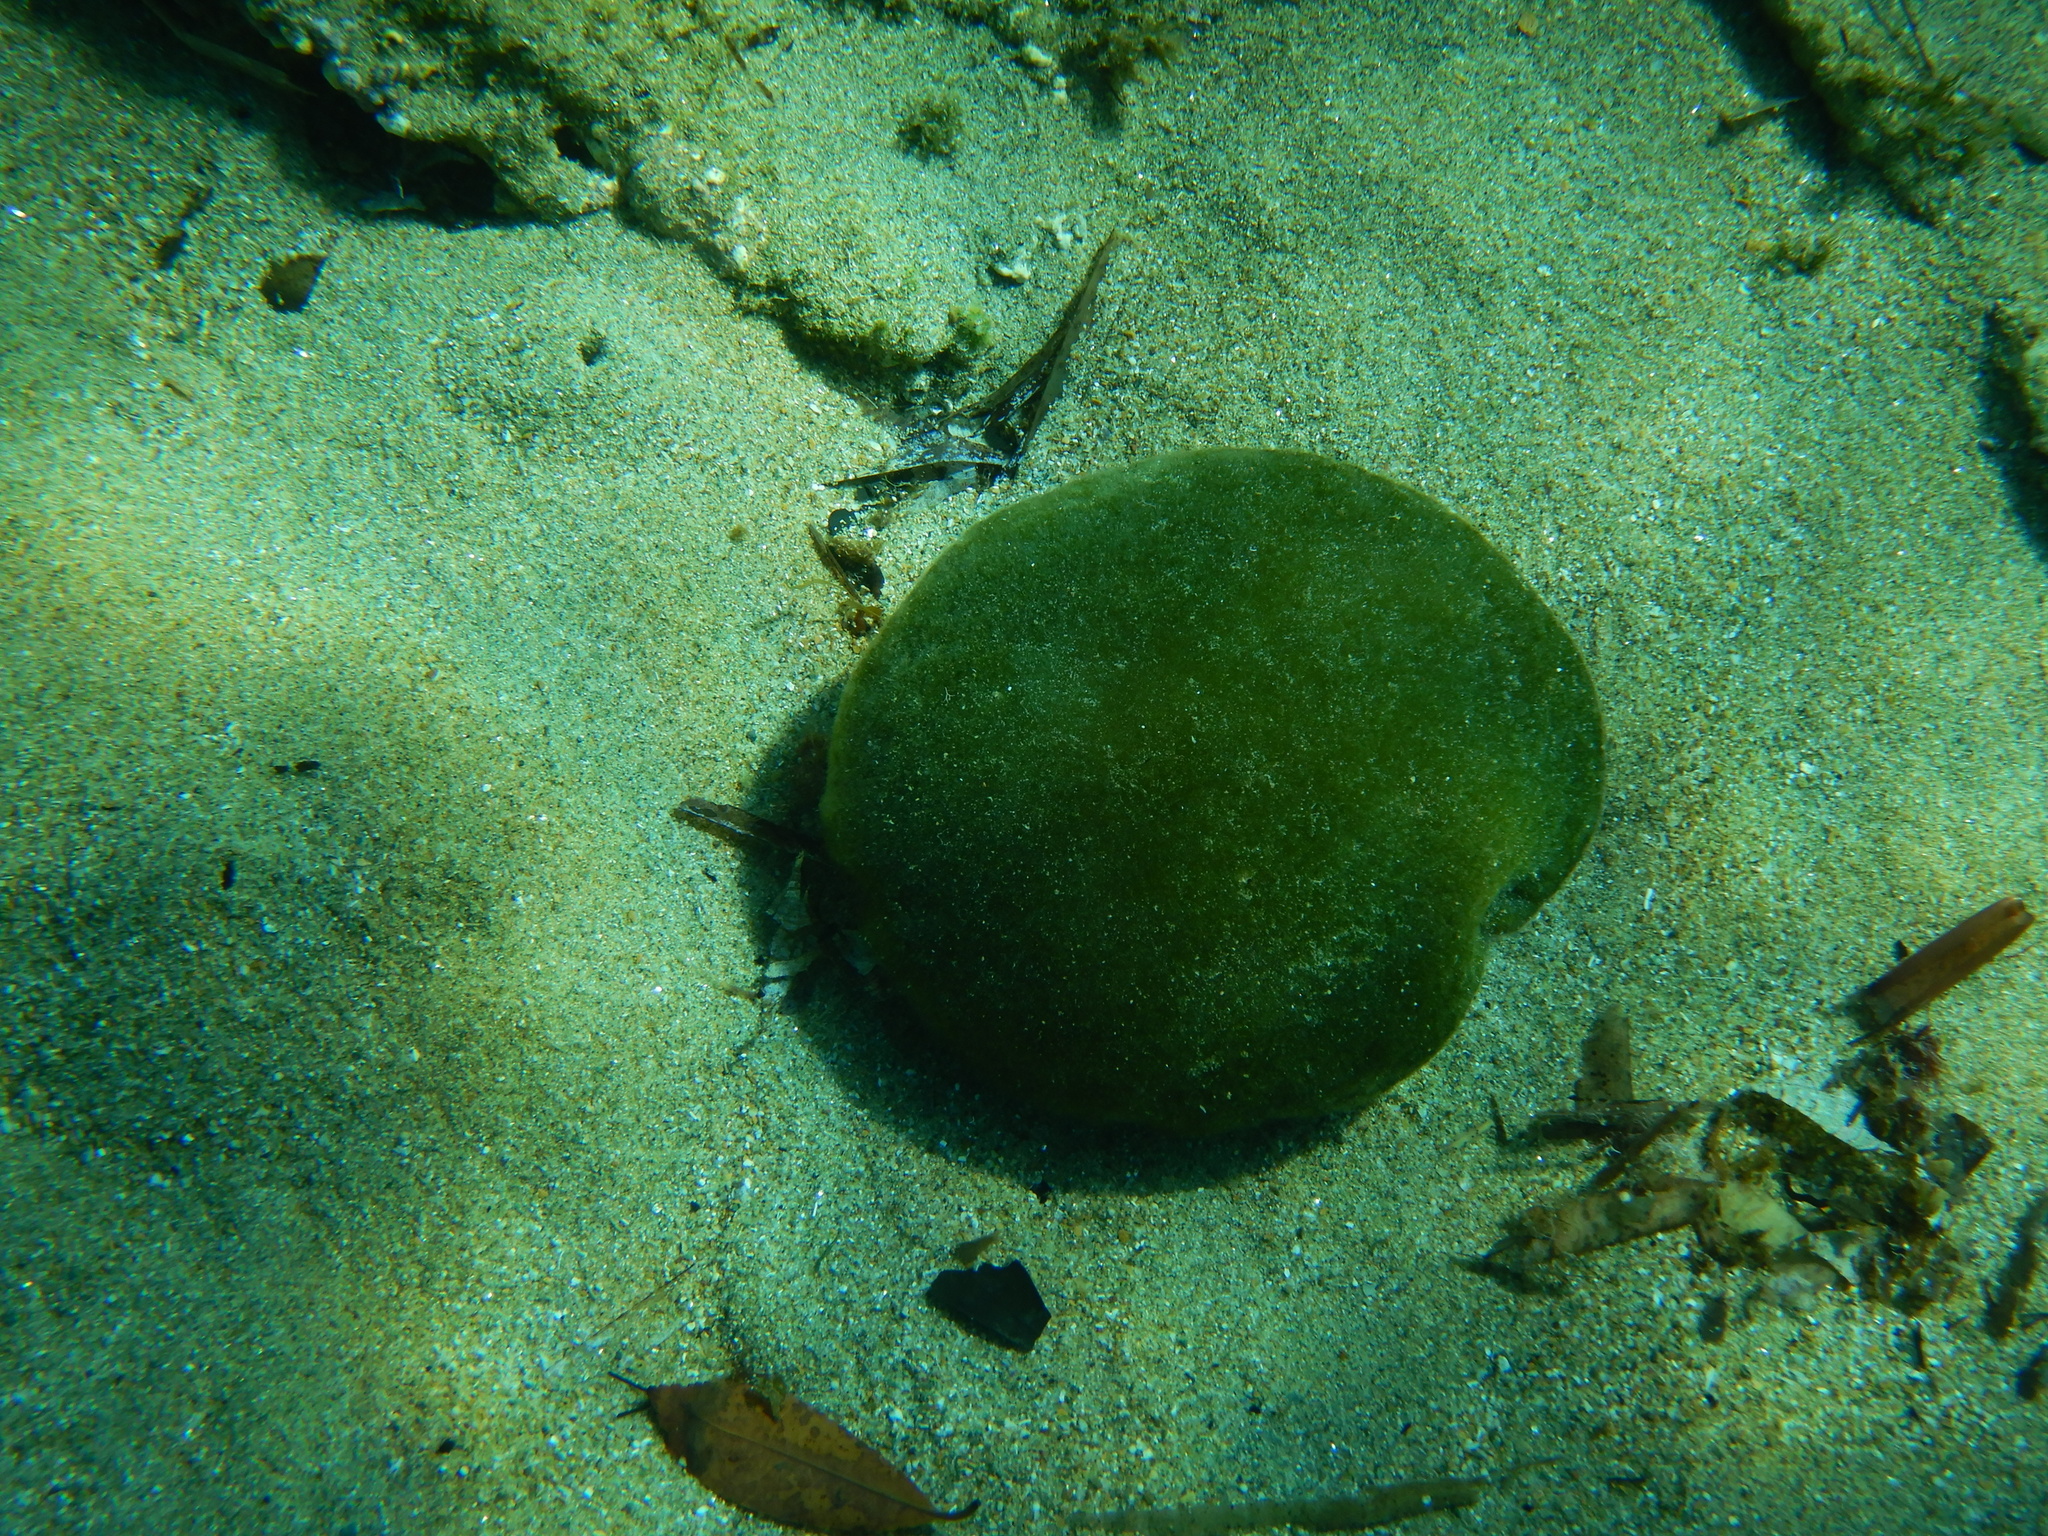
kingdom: Plantae
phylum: Chlorophyta
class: Ulvophyceae
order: Bryopsidales
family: Codiaceae
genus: Codium
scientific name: Codium bursa
